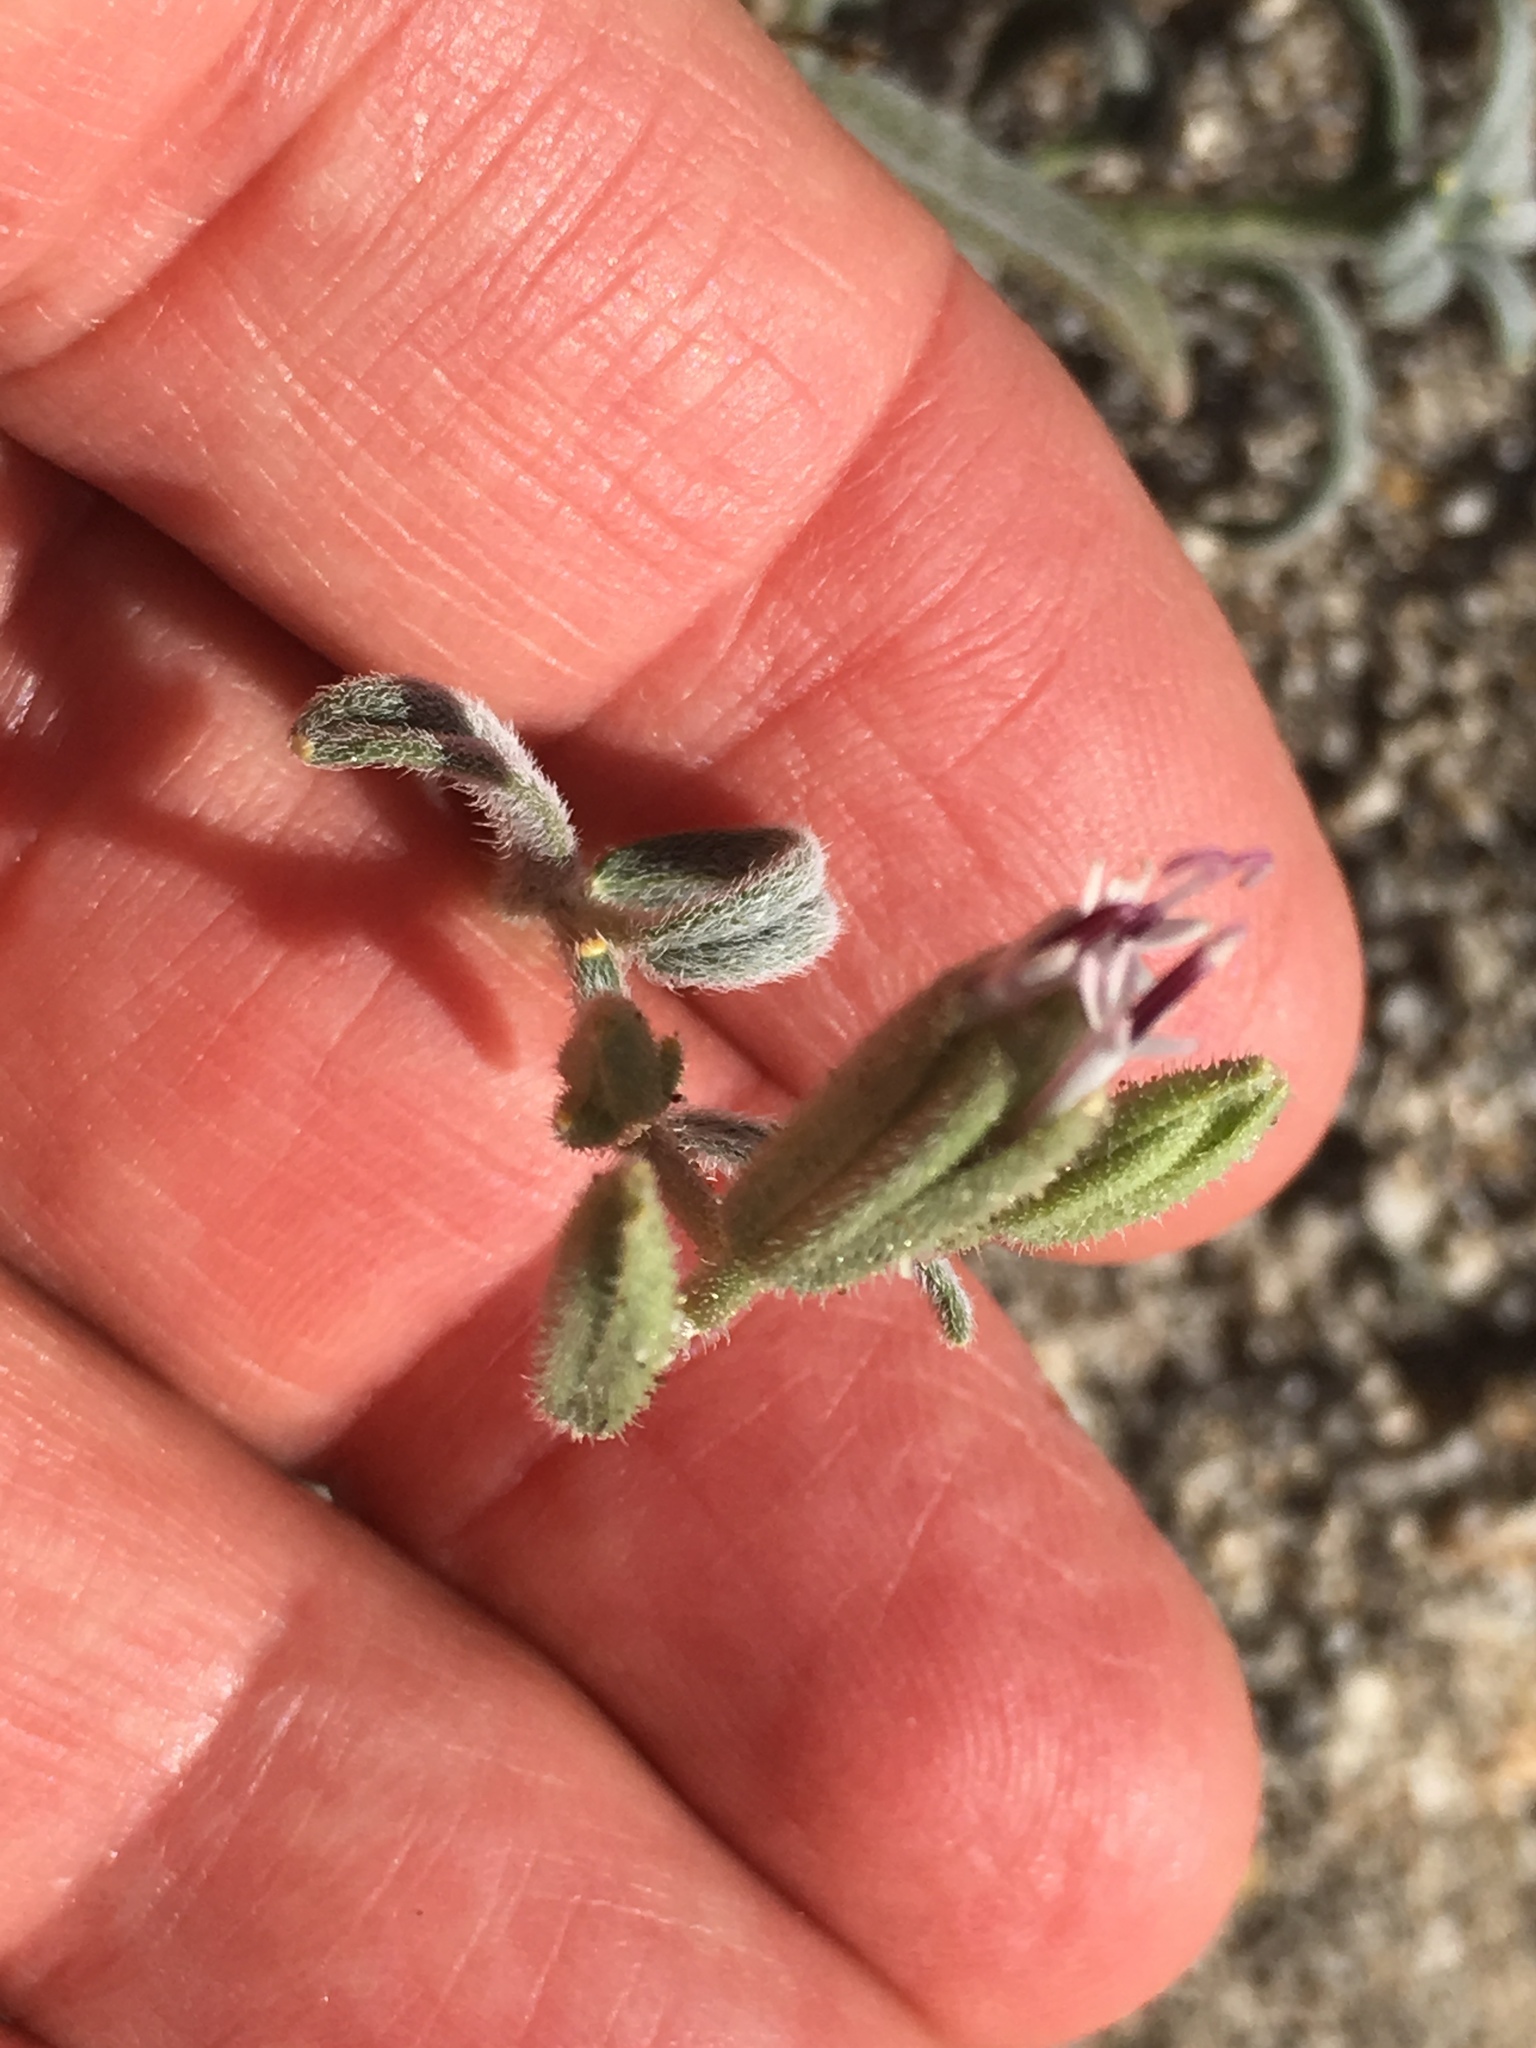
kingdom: Plantae
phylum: Tracheophyta
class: Magnoliopsida
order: Asterales
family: Asteraceae
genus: Palafoxia
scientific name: Palafoxia arida
